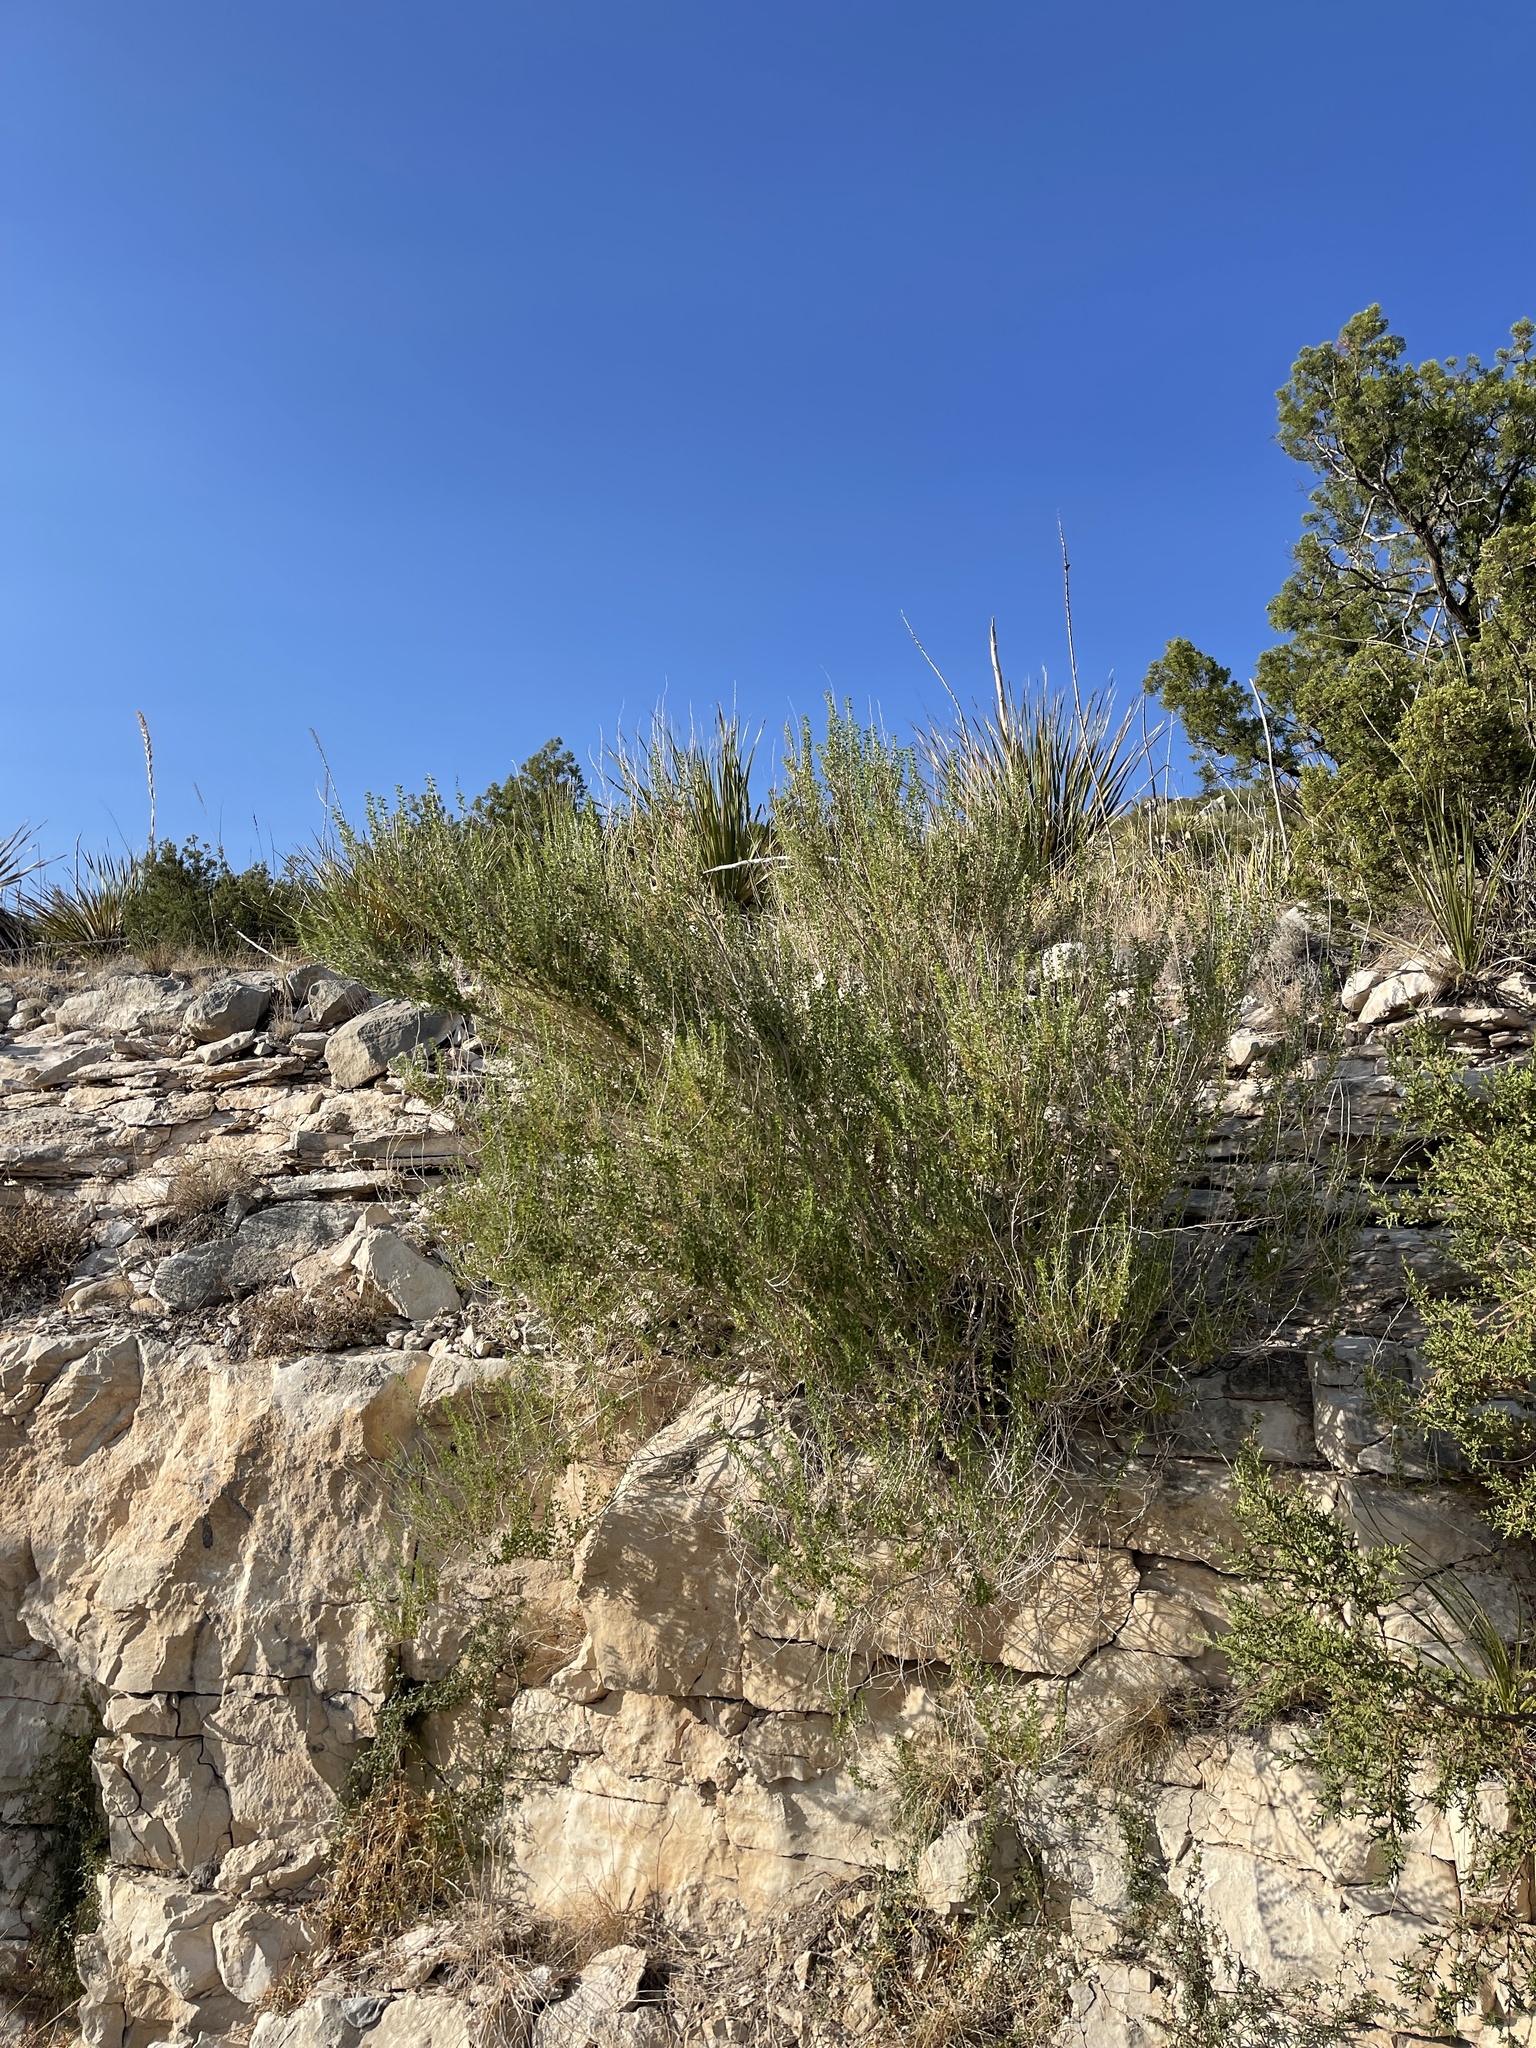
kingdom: Plantae
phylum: Tracheophyta
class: Magnoliopsida
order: Asterales
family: Asteraceae
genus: Brickellia
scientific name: Brickellia laciniata
